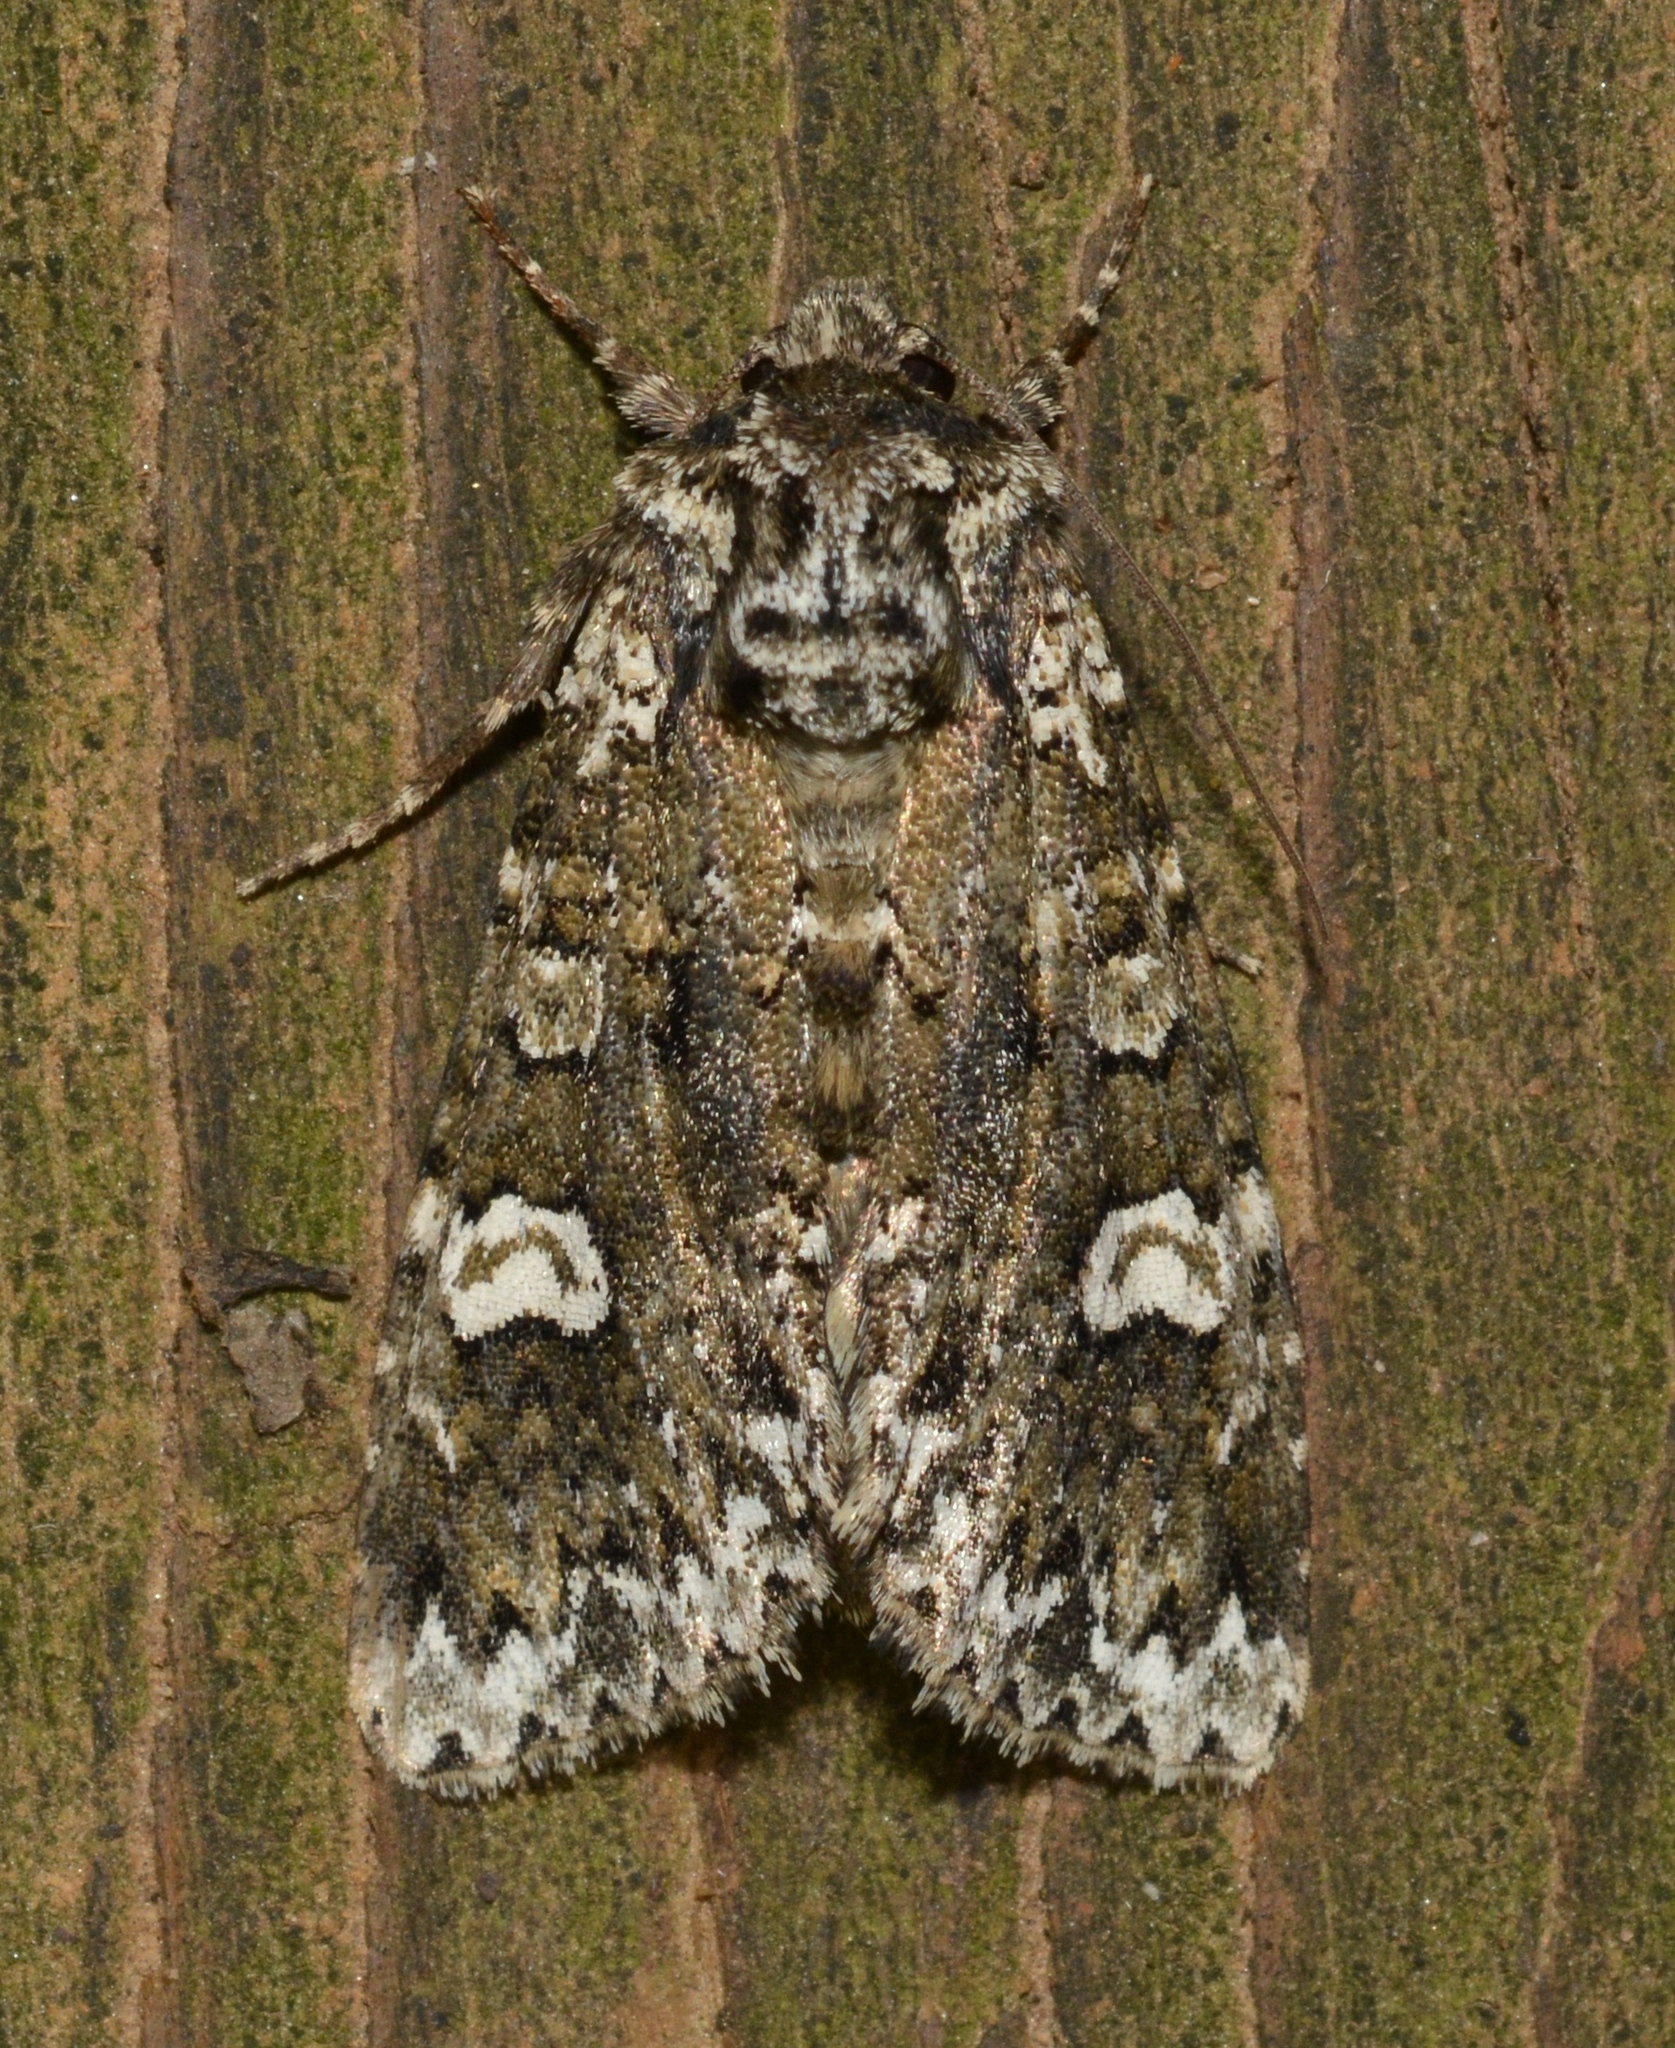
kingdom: Animalia
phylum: Arthropoda
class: Insecta
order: Lepidoptera
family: Noctuidae
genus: Melanchra
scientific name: Melanchra adjuncta
